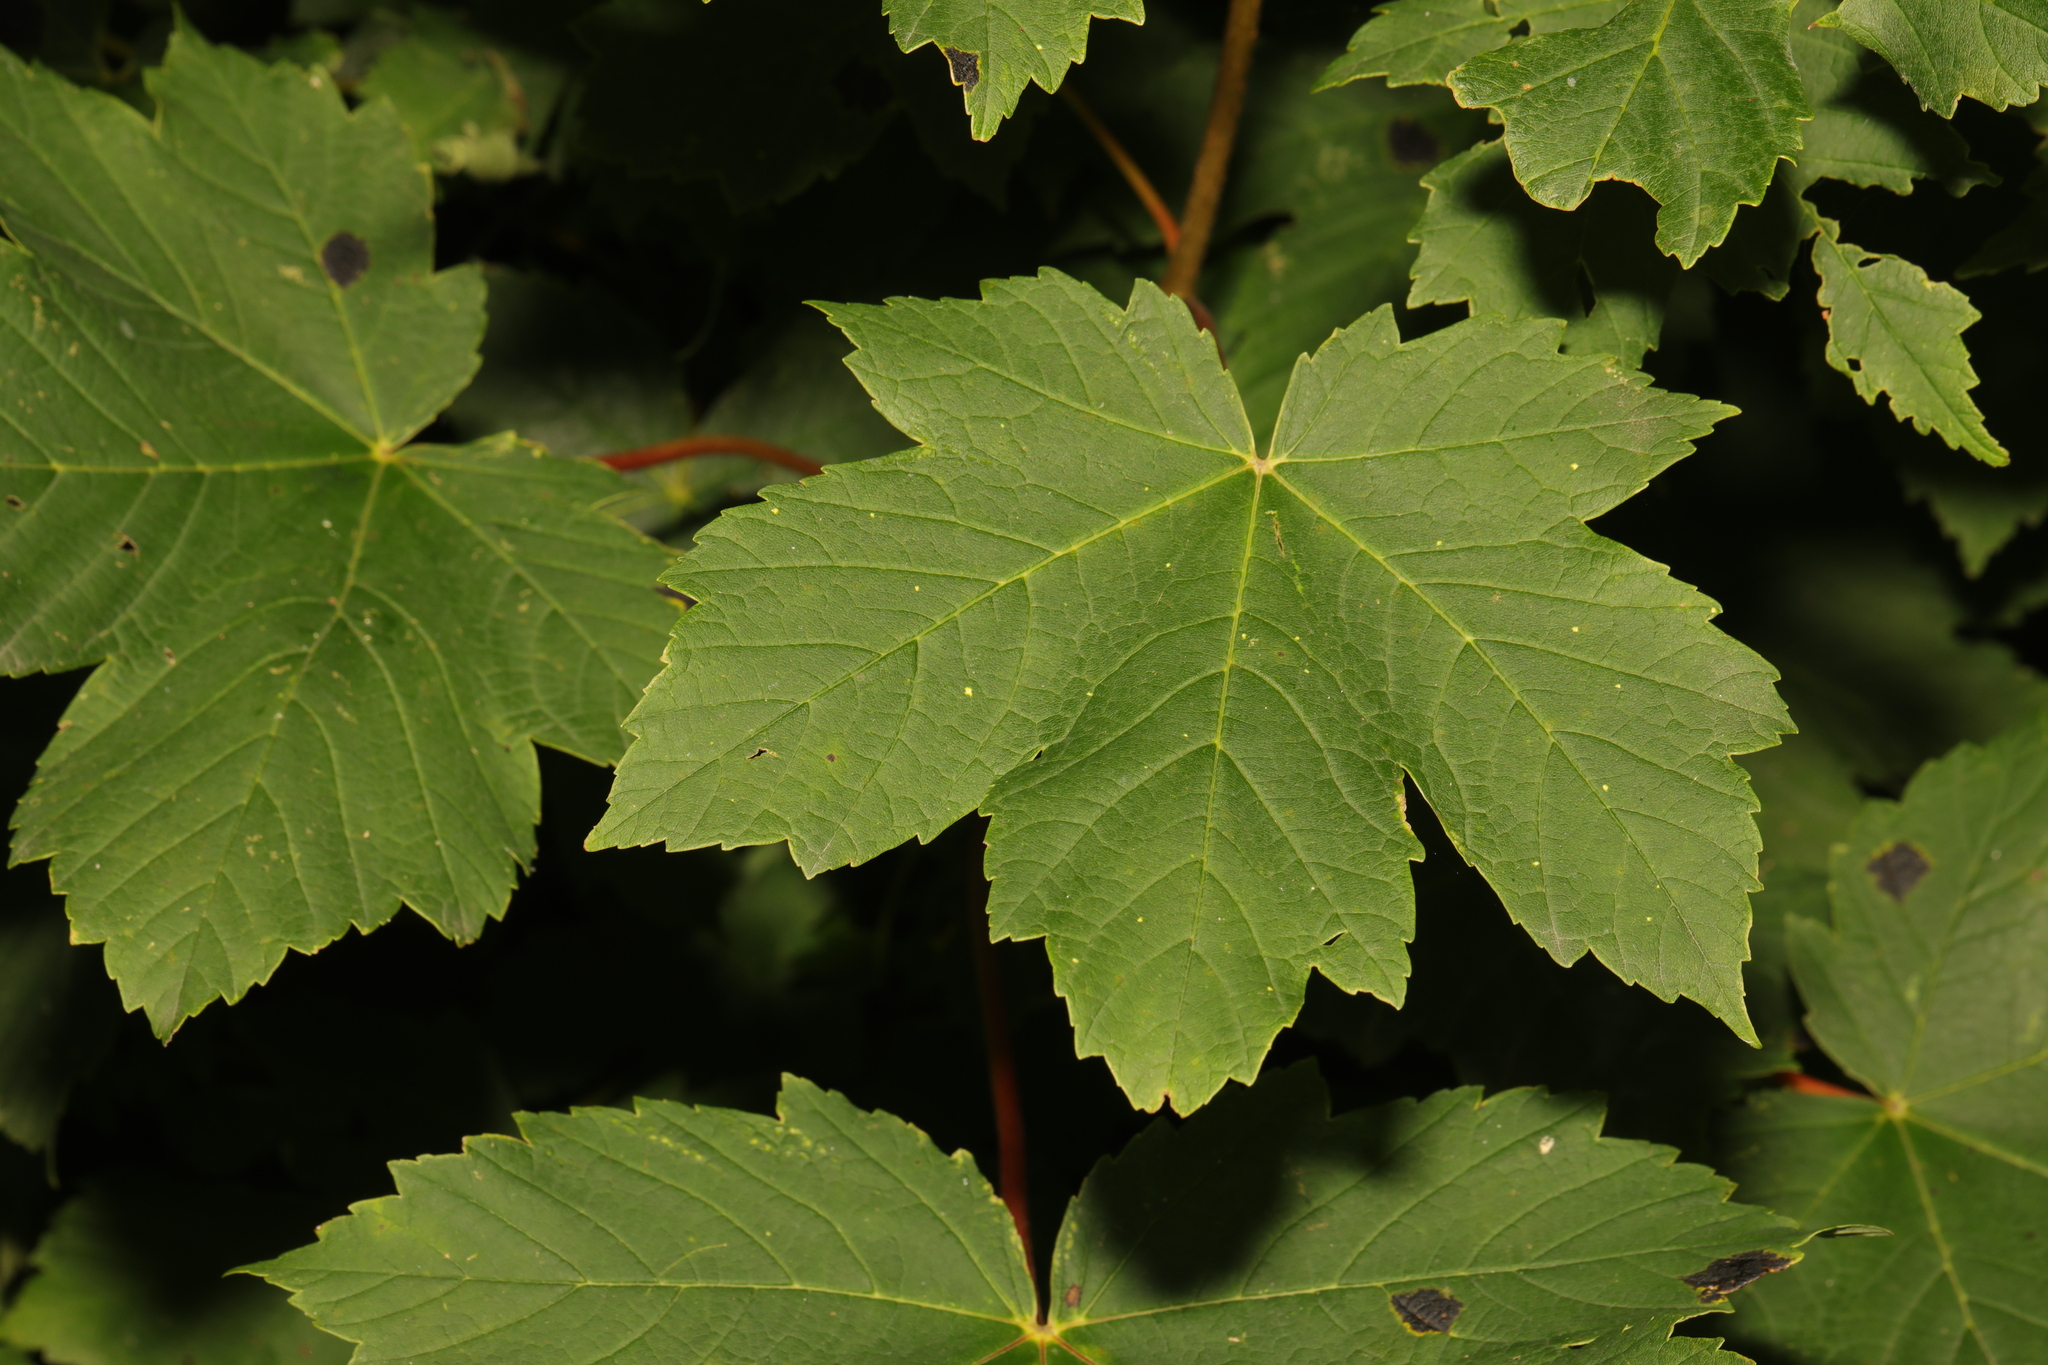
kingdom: Plantae
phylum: Tracheophyta
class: Magnoliopsida
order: Sapindales
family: Sapindaceae
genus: Acer
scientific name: Acer pseudoplatanus
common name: Sycamore
